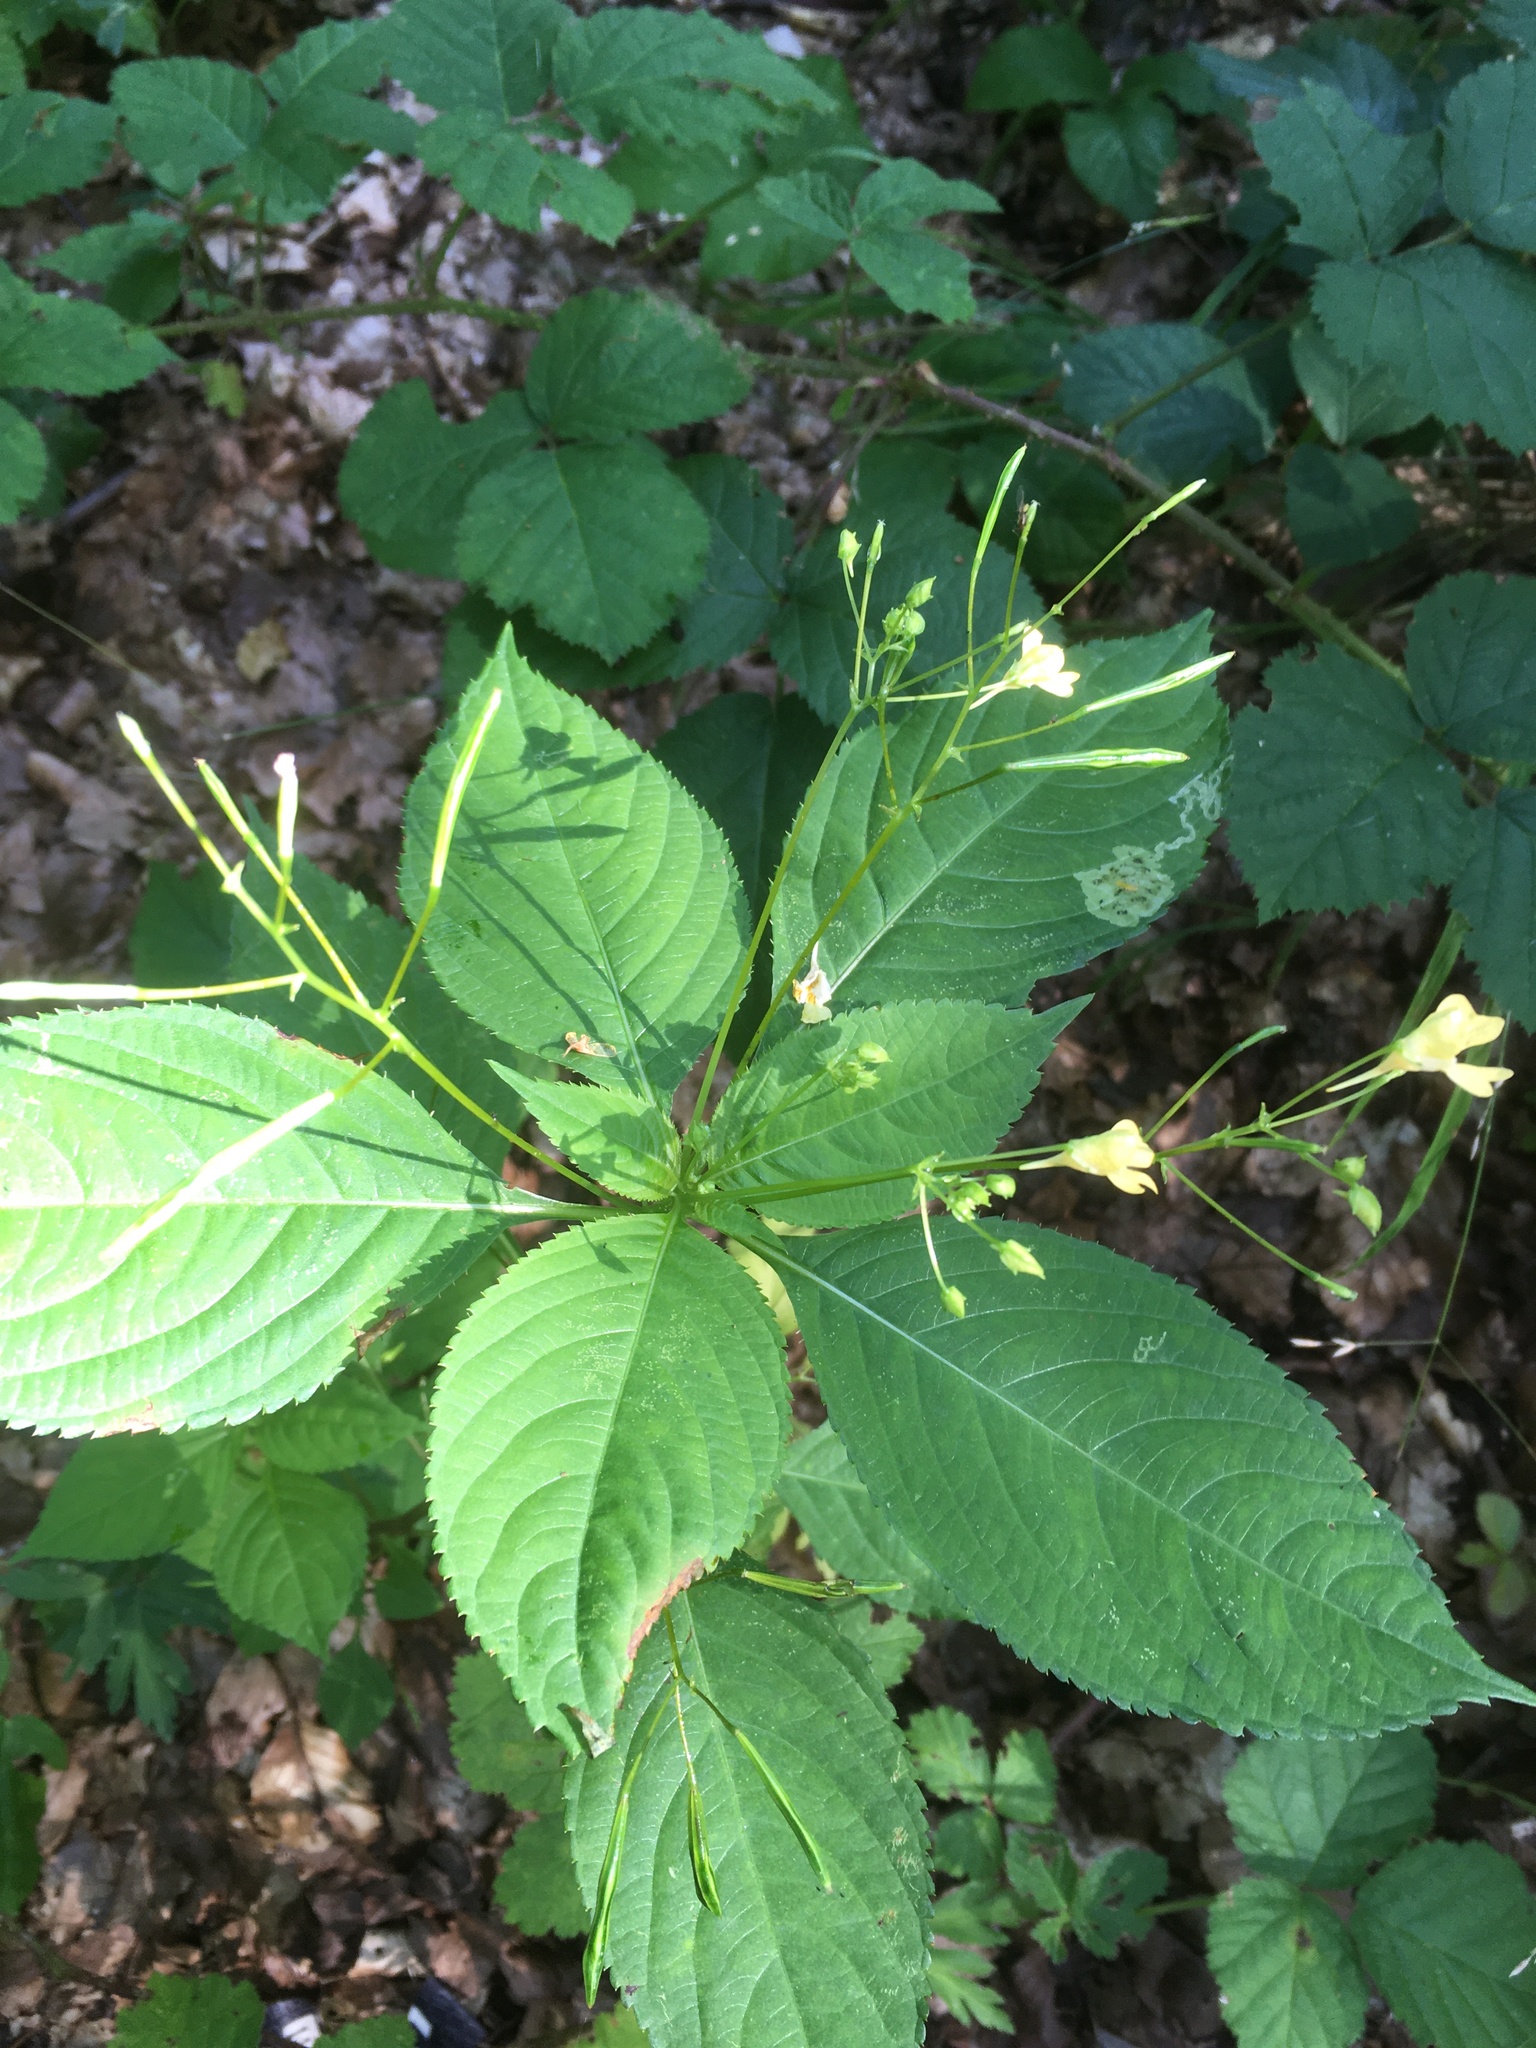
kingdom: Plantae
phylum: Tracheophyta
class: Magnoliopsida
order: Ericales
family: Balsaminaceae
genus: Impatiens
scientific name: Impatiens parviflora
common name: Small balsam
